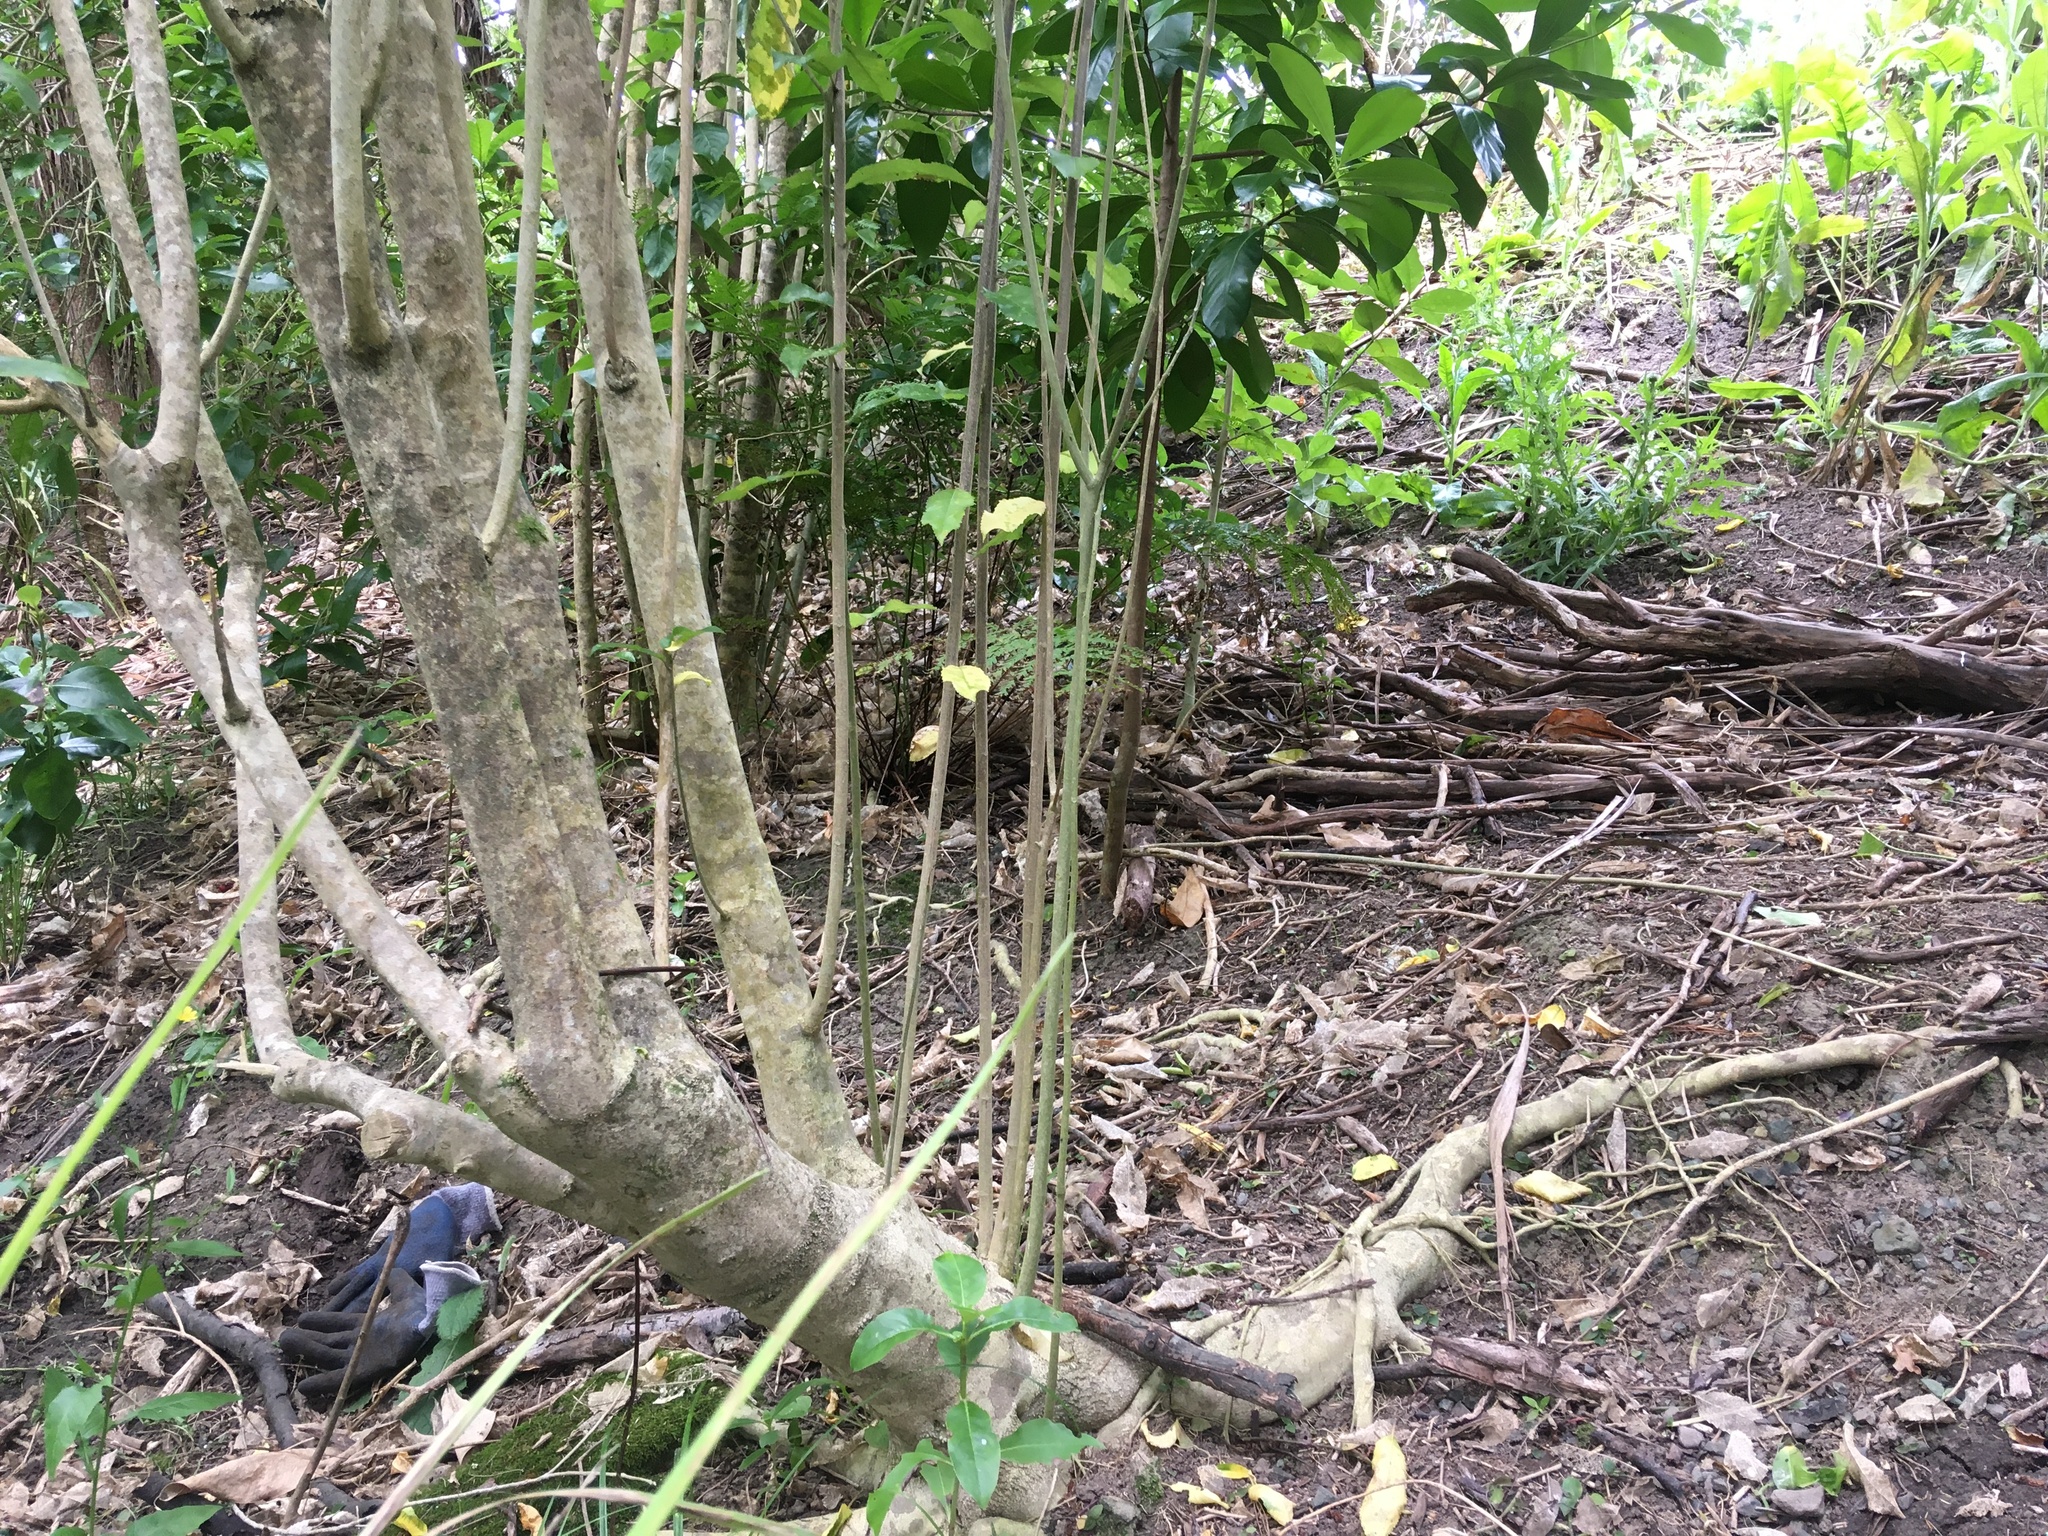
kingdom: Plantae
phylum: Tracheophyta
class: Magnoliopsida
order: Malpighiales
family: Violaceae
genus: Melicytus
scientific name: Melicytus ramiflorus
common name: Mahoe
